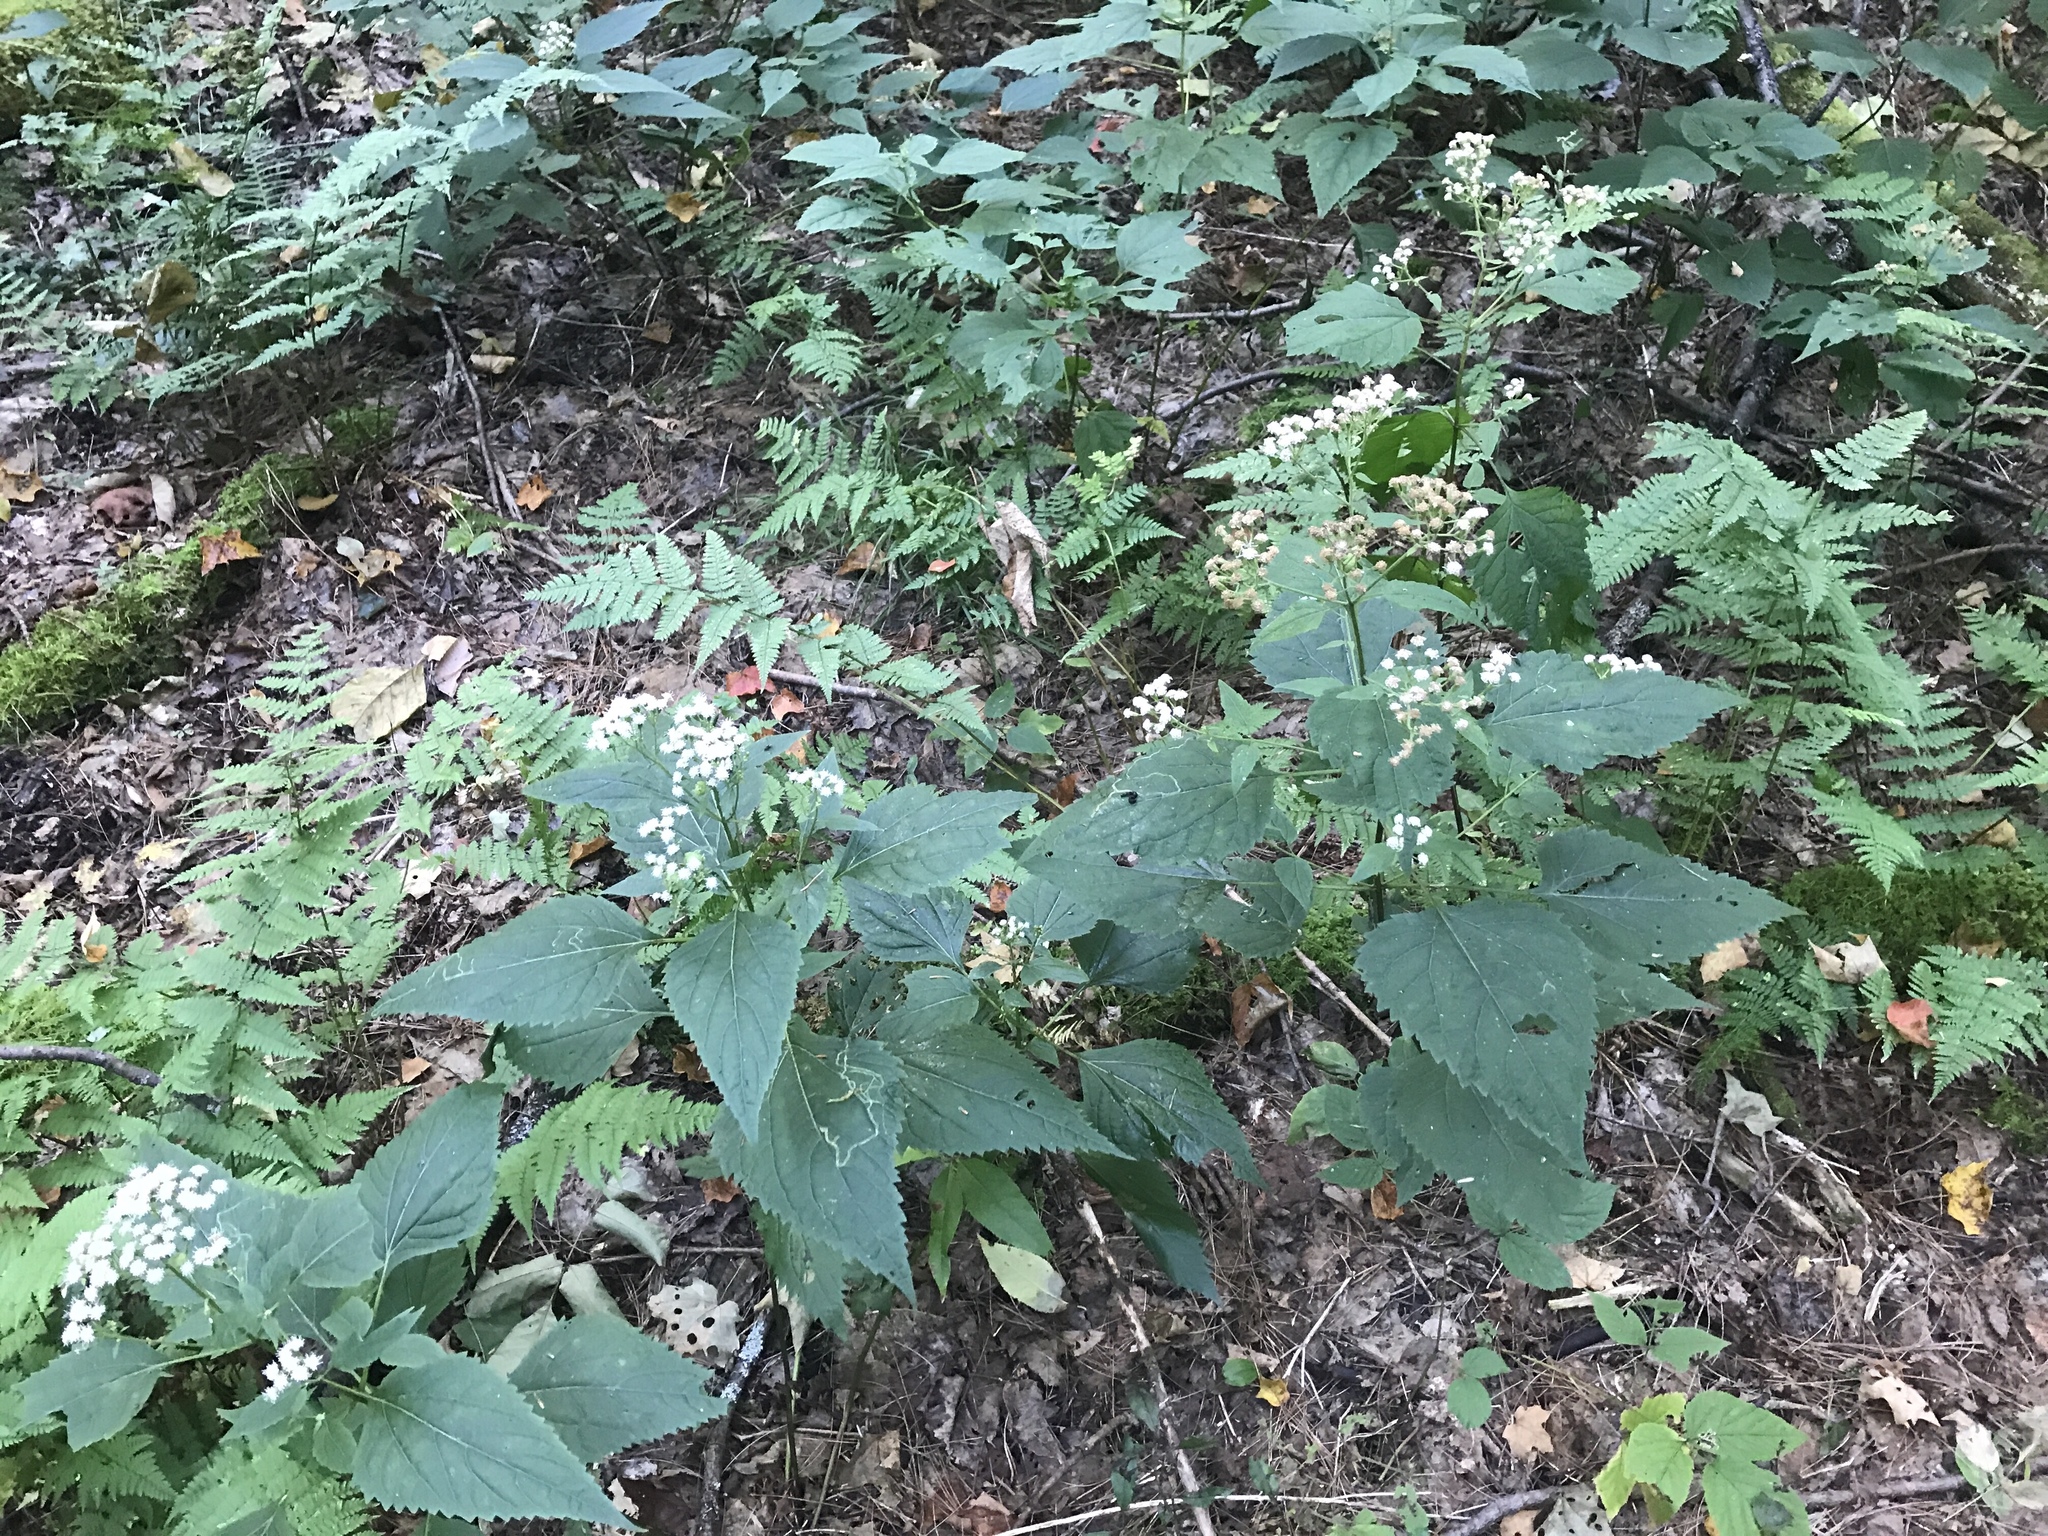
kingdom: Plantae
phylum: Tracheophyta
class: Magnoliopsida
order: Asterales
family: Asteraceae
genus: Ageratina
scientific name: Ageratina altissima
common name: White snakeroot
